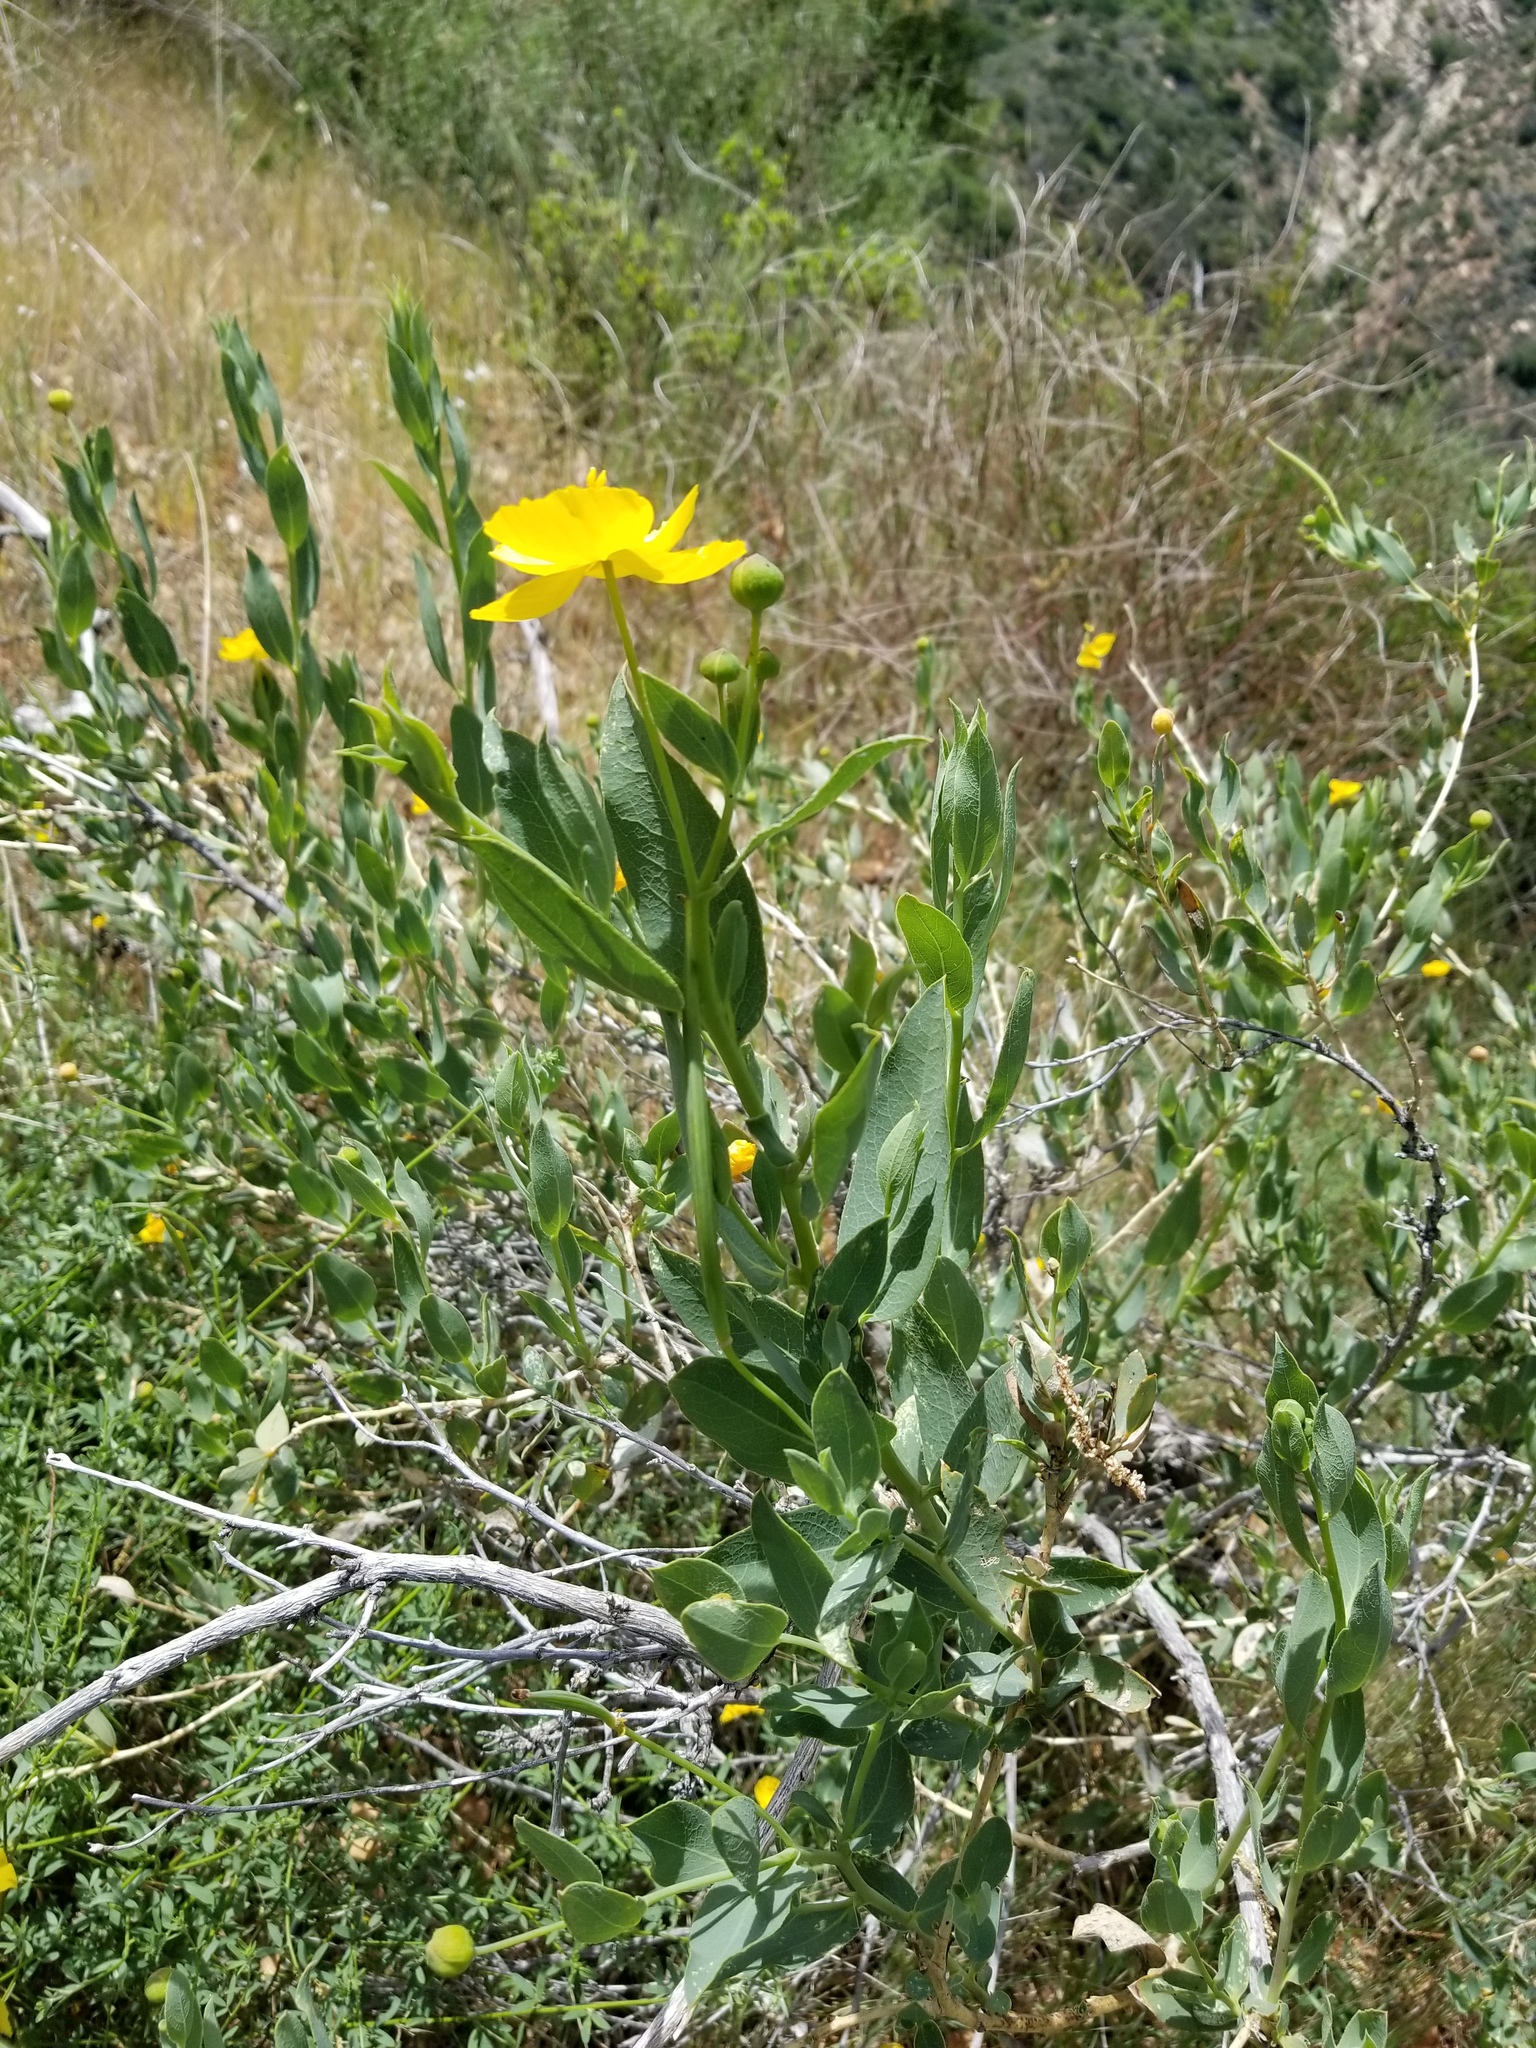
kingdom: Plantae
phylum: Tracheophyta
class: Magnoliopsida
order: Ranunculales
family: Papaveraceae
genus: Dendromecon
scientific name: Dendromecon rigida
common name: Tree poppy
